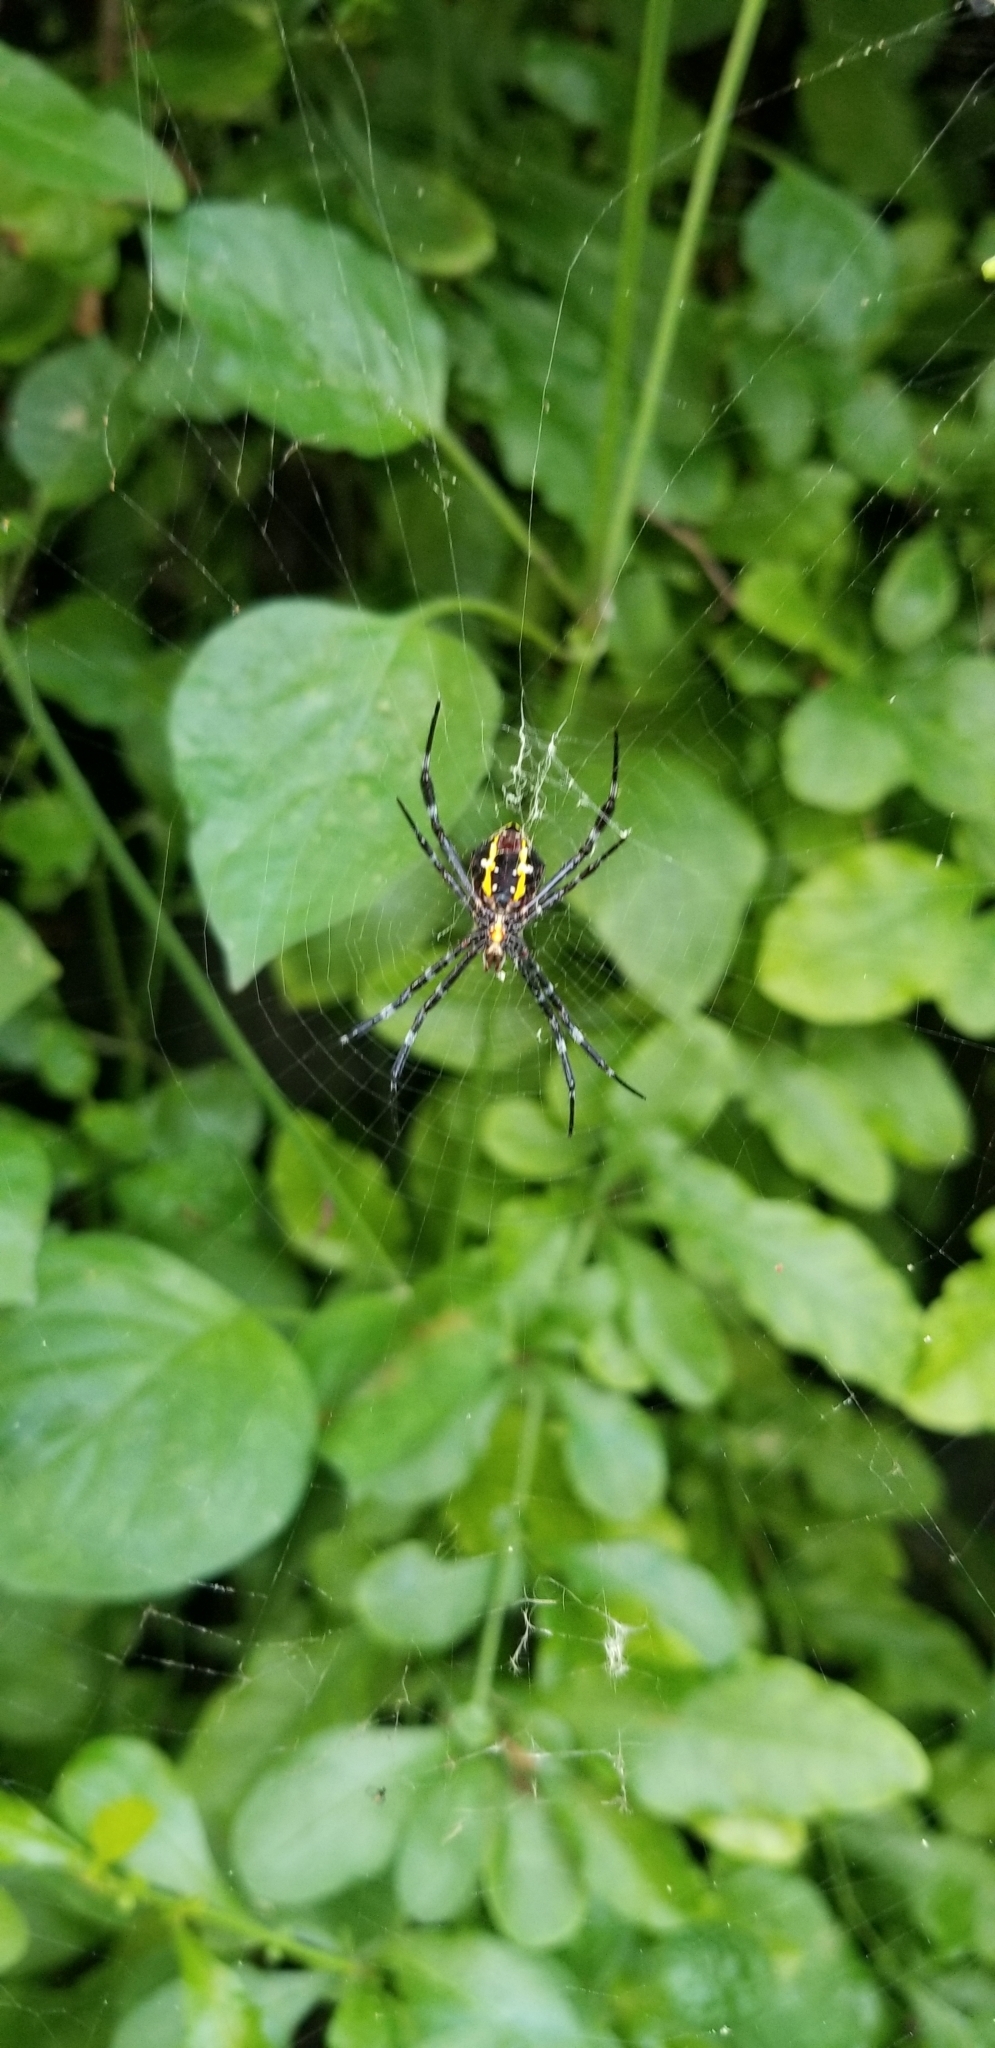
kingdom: Animalia
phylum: Arthropoda
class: Arachnida
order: Araneae
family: Araneidae
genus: Argiope
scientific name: Argiope appensa
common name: Garden spider
